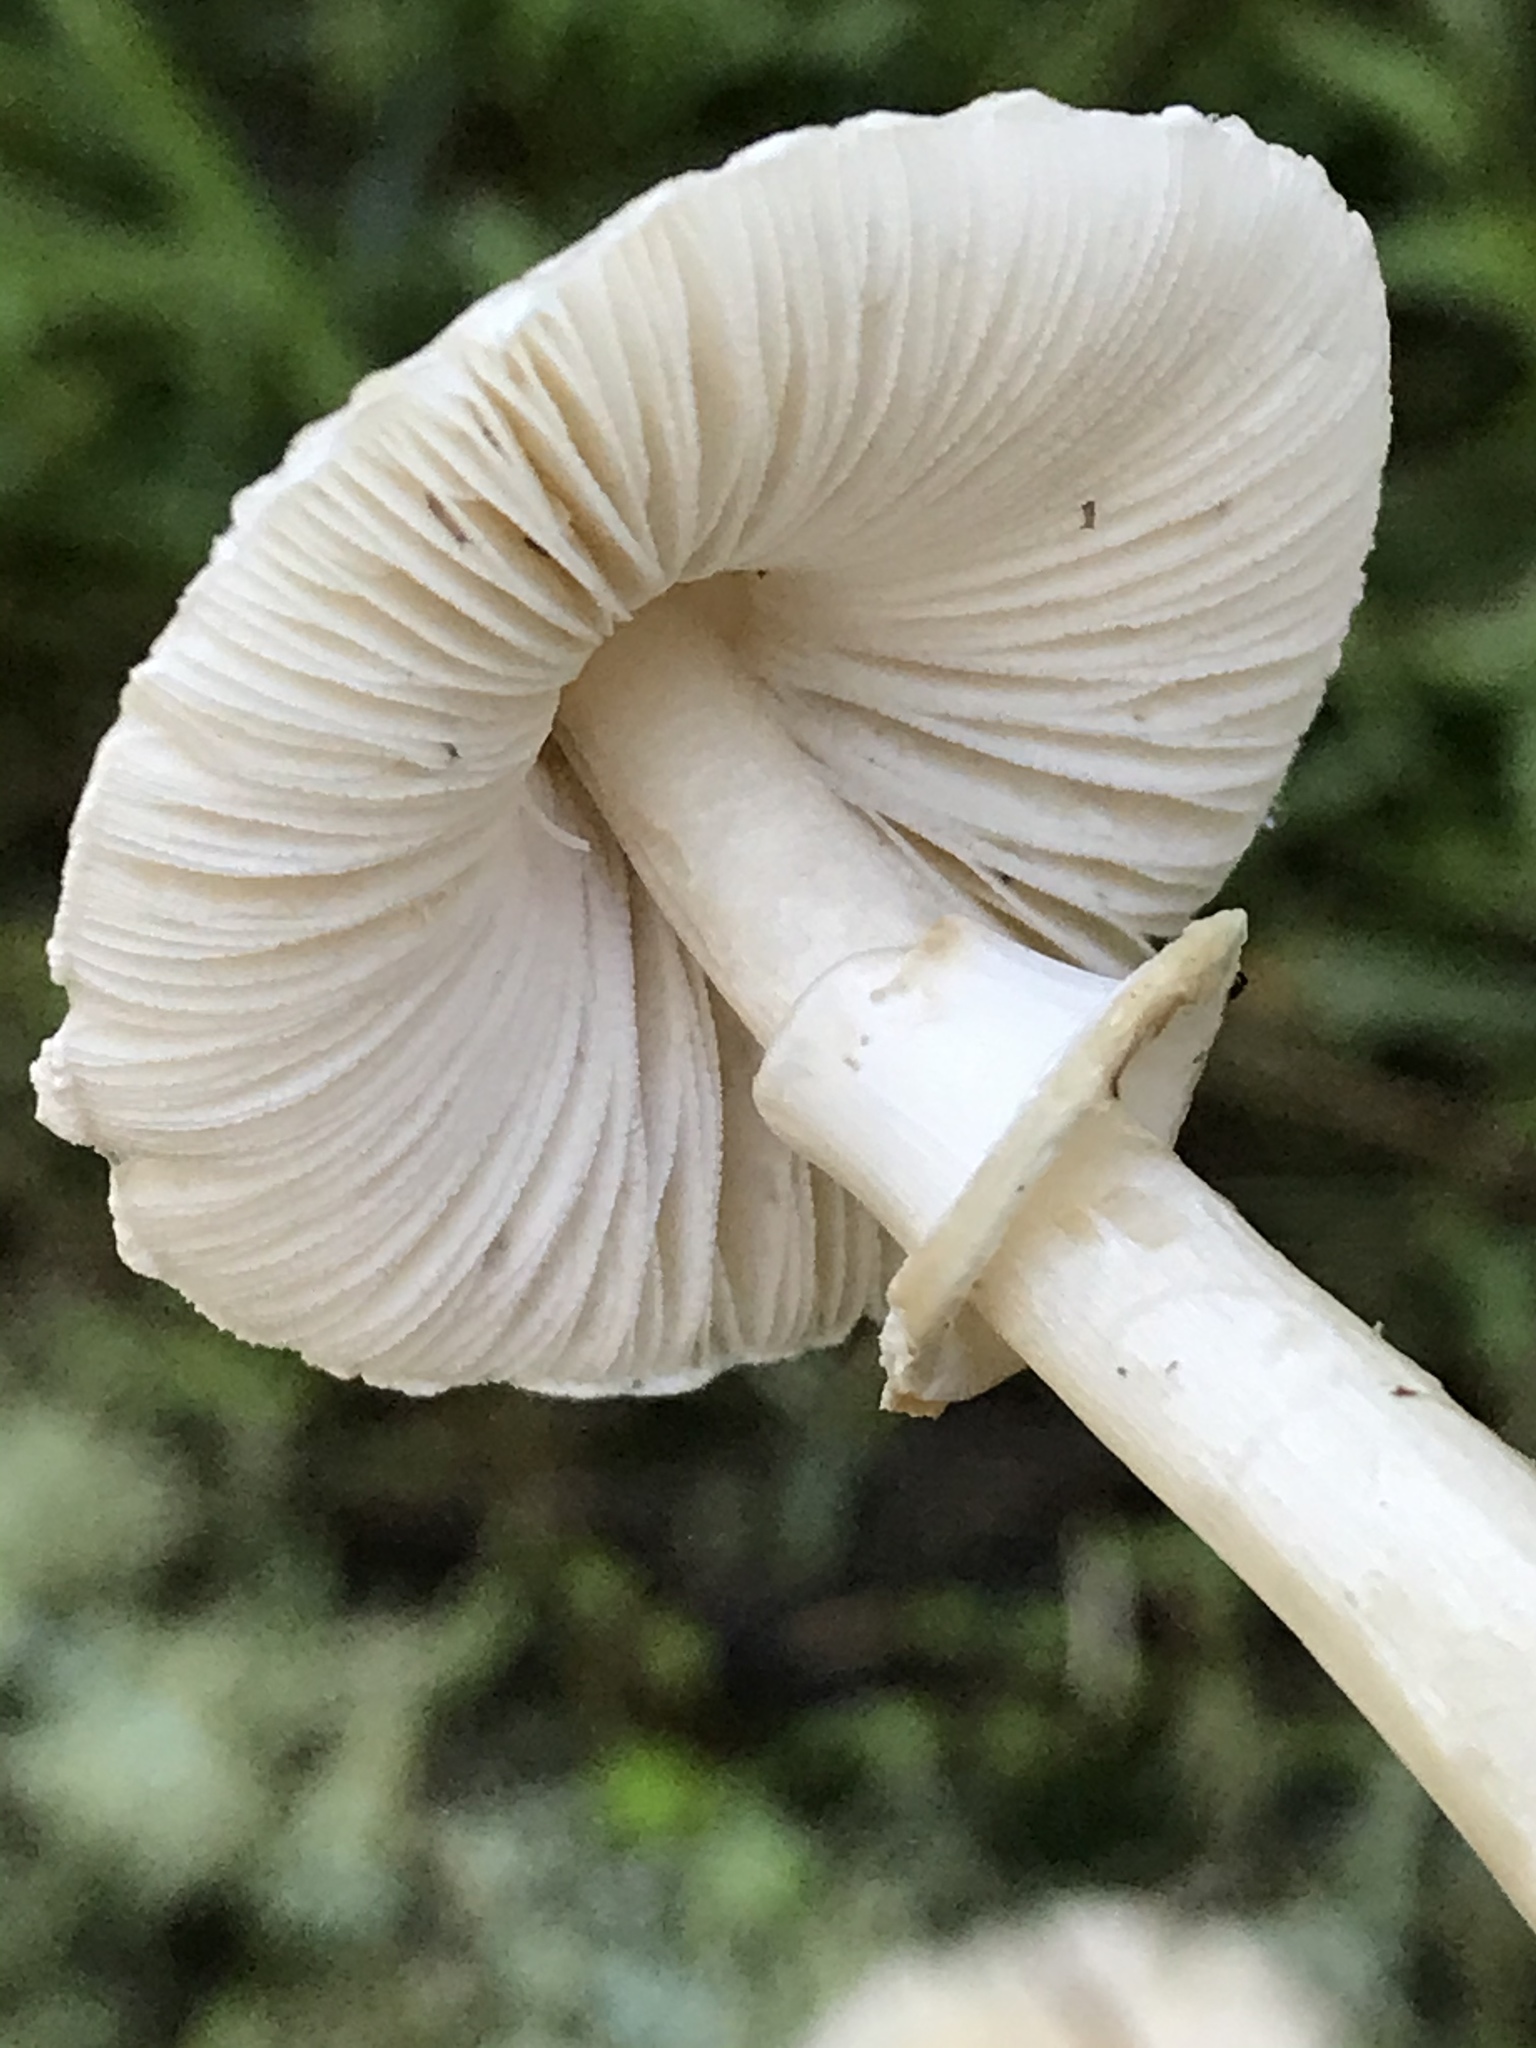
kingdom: Fungi
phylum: Basidiomycota
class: Agaricomycetes
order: Agaricales
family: Agaricaceae
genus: Lepiota
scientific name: Lepiota rubrotinctoides
